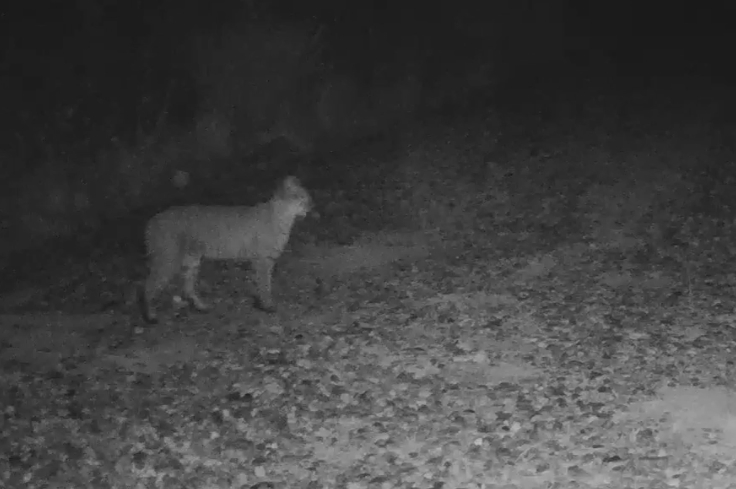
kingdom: Animalia
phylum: Chordata
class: Mammalia
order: Carnivora
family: Felidae
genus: Lynx
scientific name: Lynx rufus
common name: Bobcat
